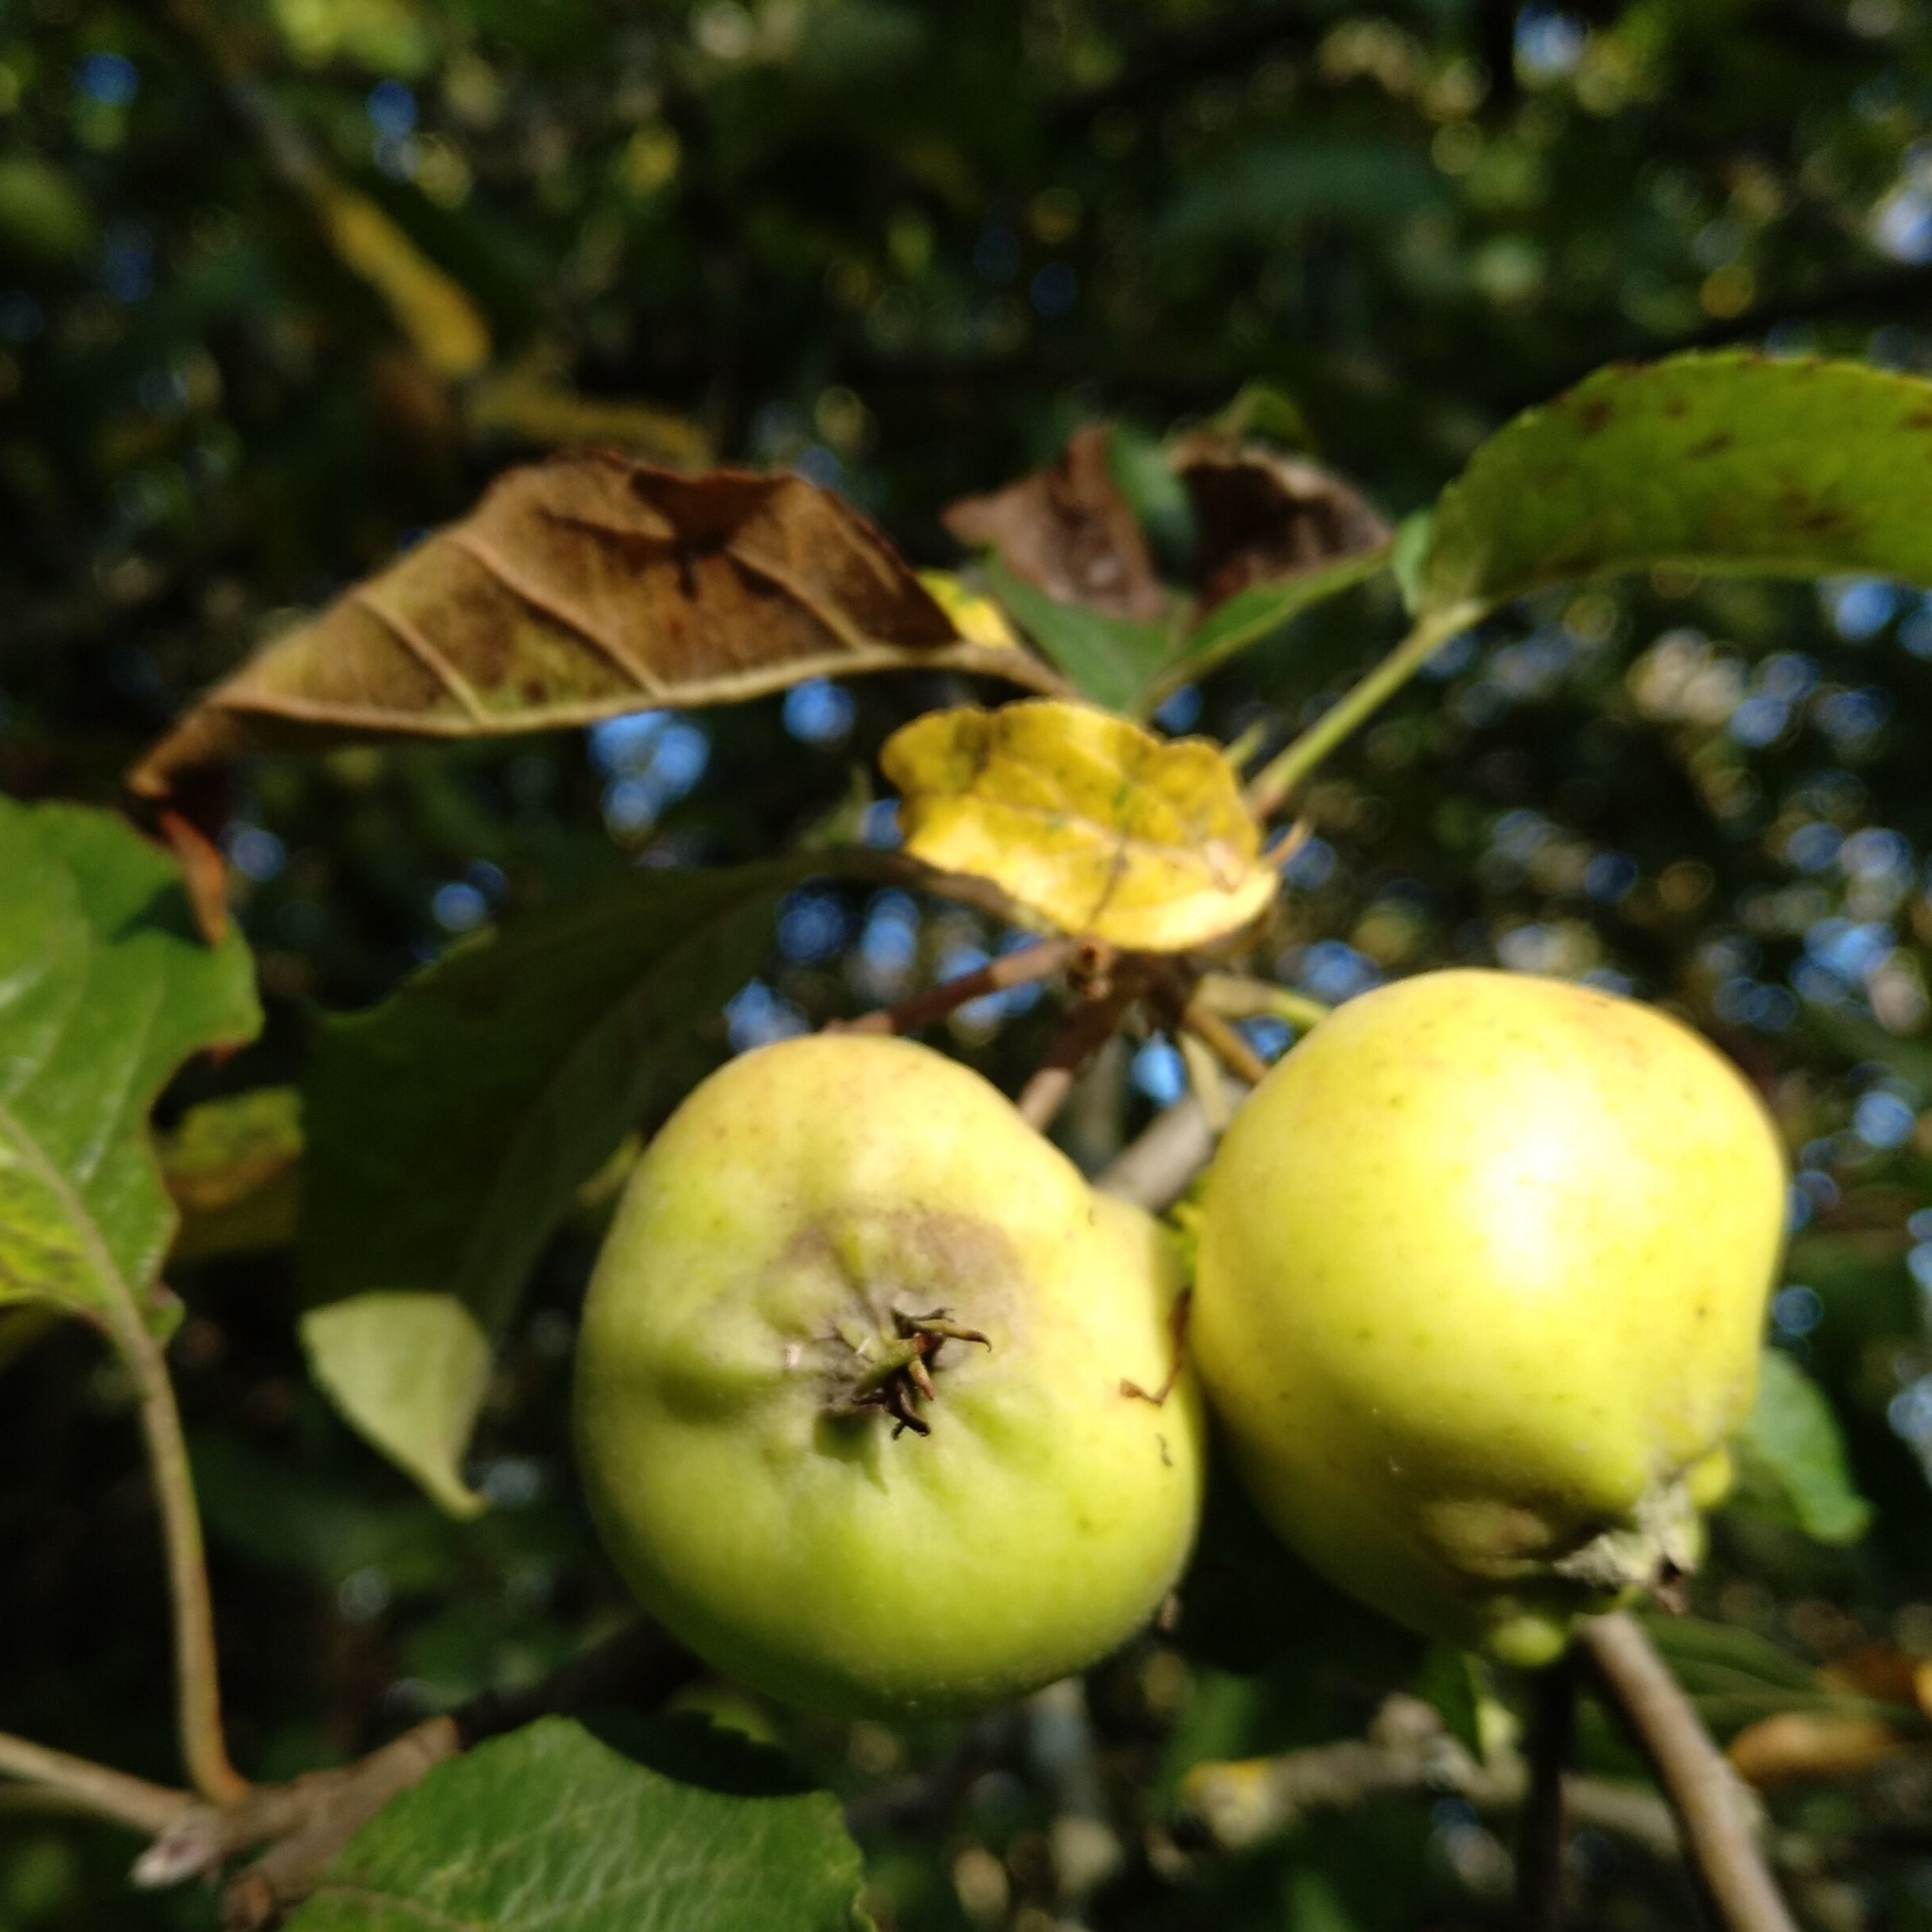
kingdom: Plantae
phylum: Tracheophyta
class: Magnoliopsida
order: Rosales
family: Rosaceae
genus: Malus
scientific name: Malus domestica
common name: Apple
